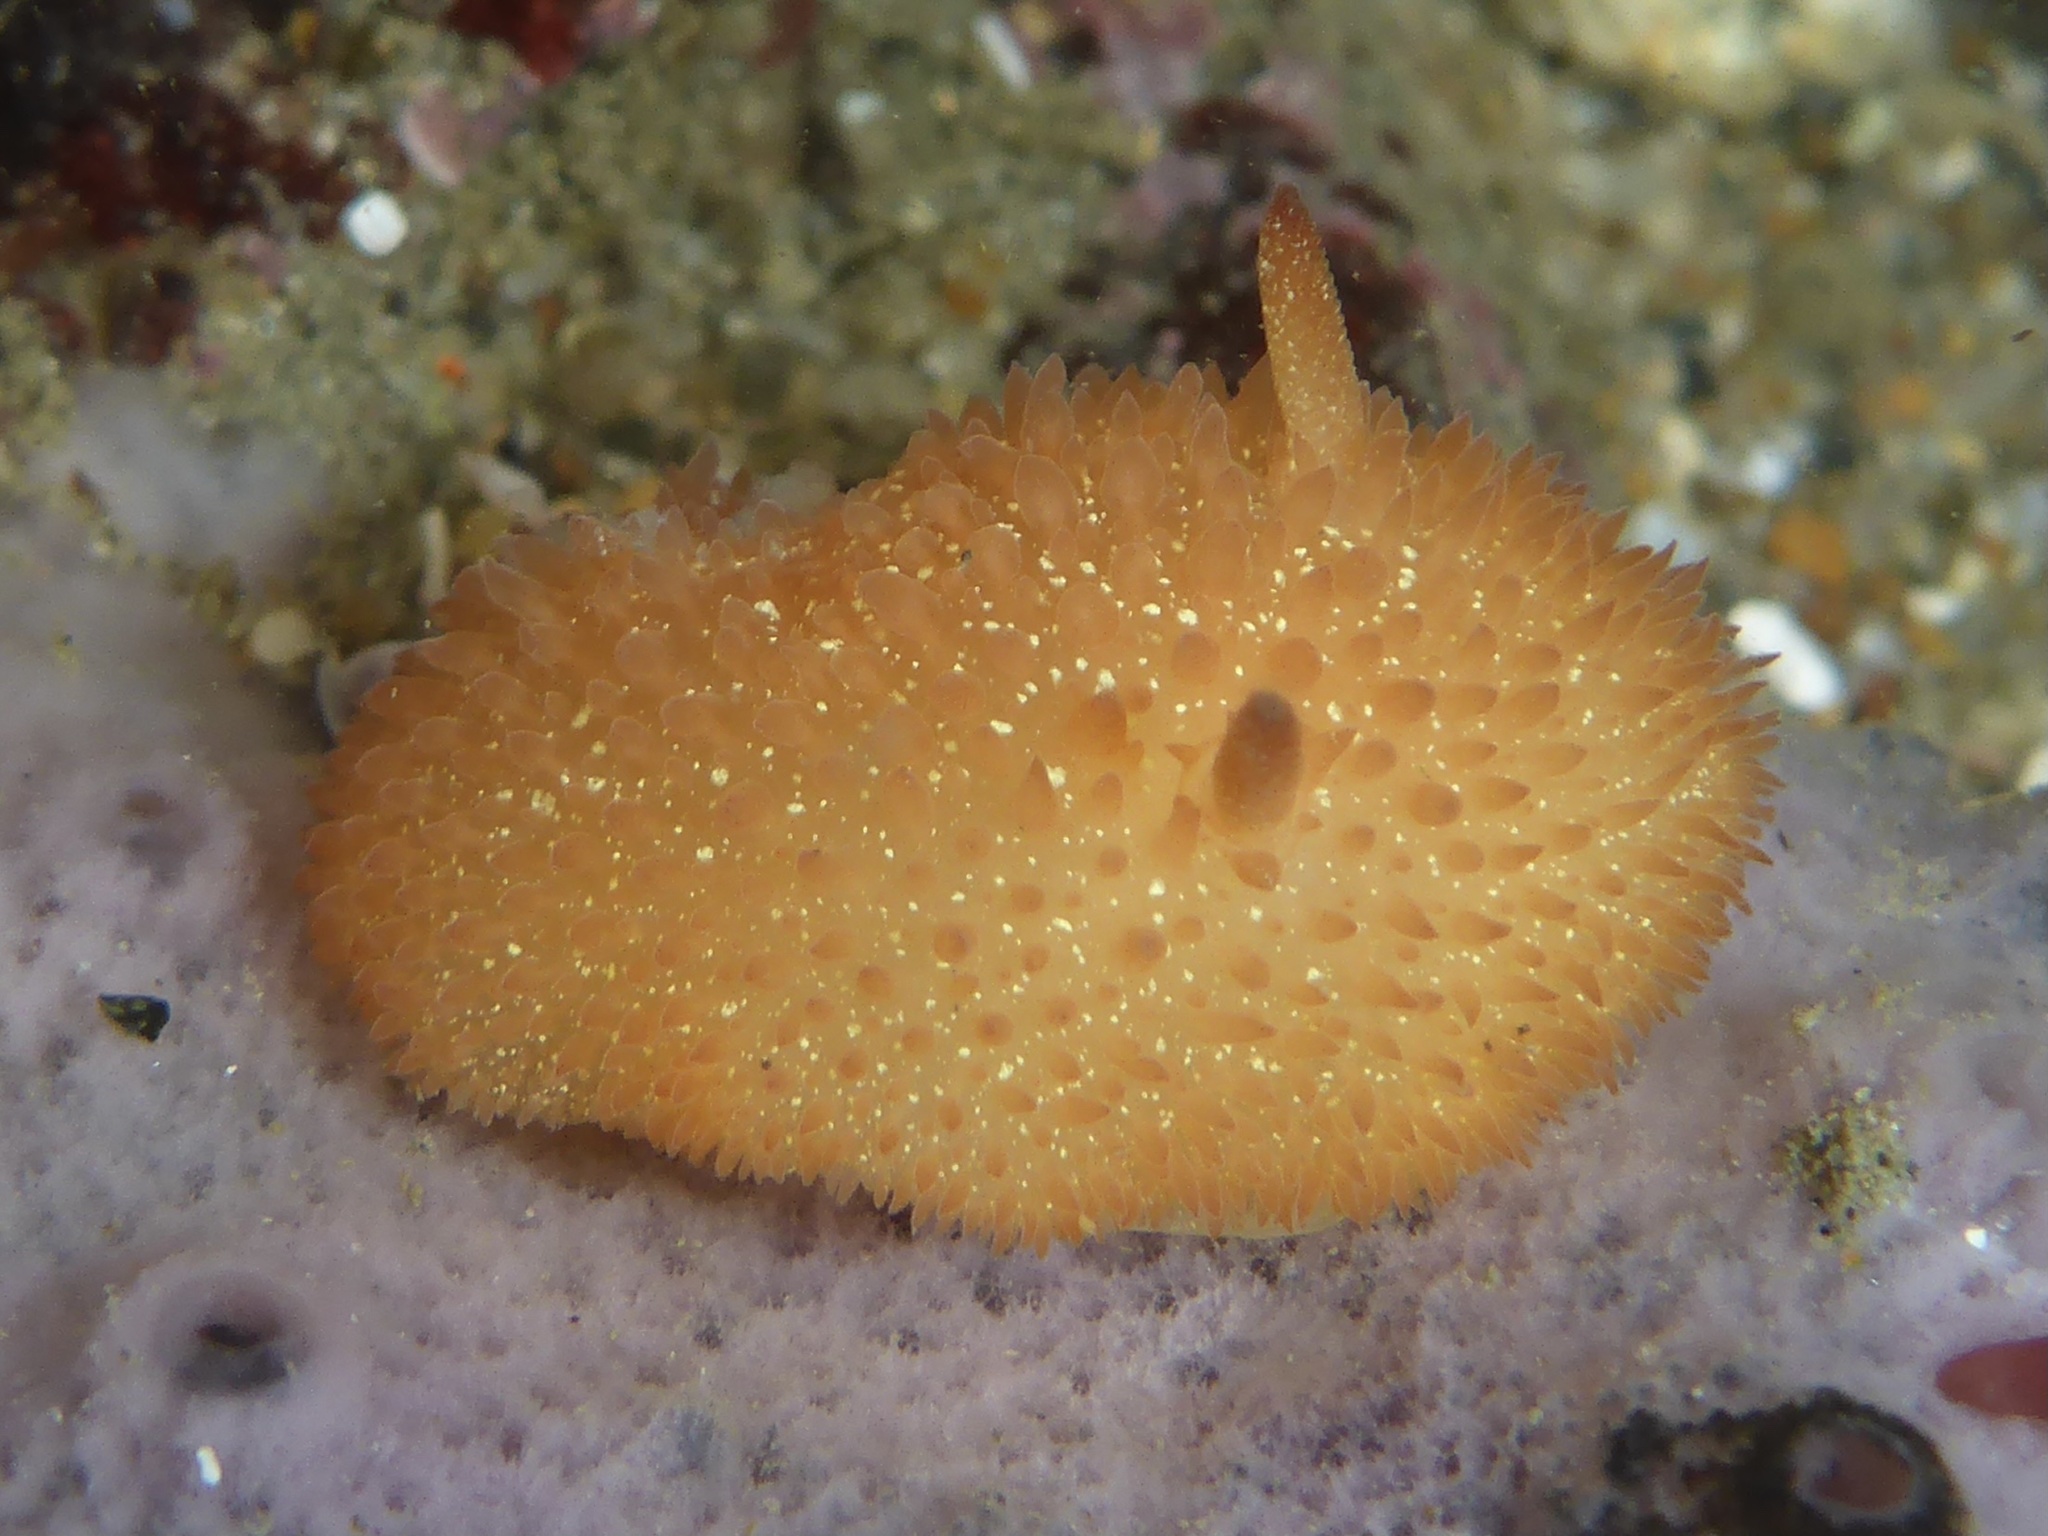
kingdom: Animalia
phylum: Mollusca
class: Gastropoda
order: Nudibranchia
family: Onchidorididae
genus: Acanthodoris
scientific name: Acanthodoris lutea
